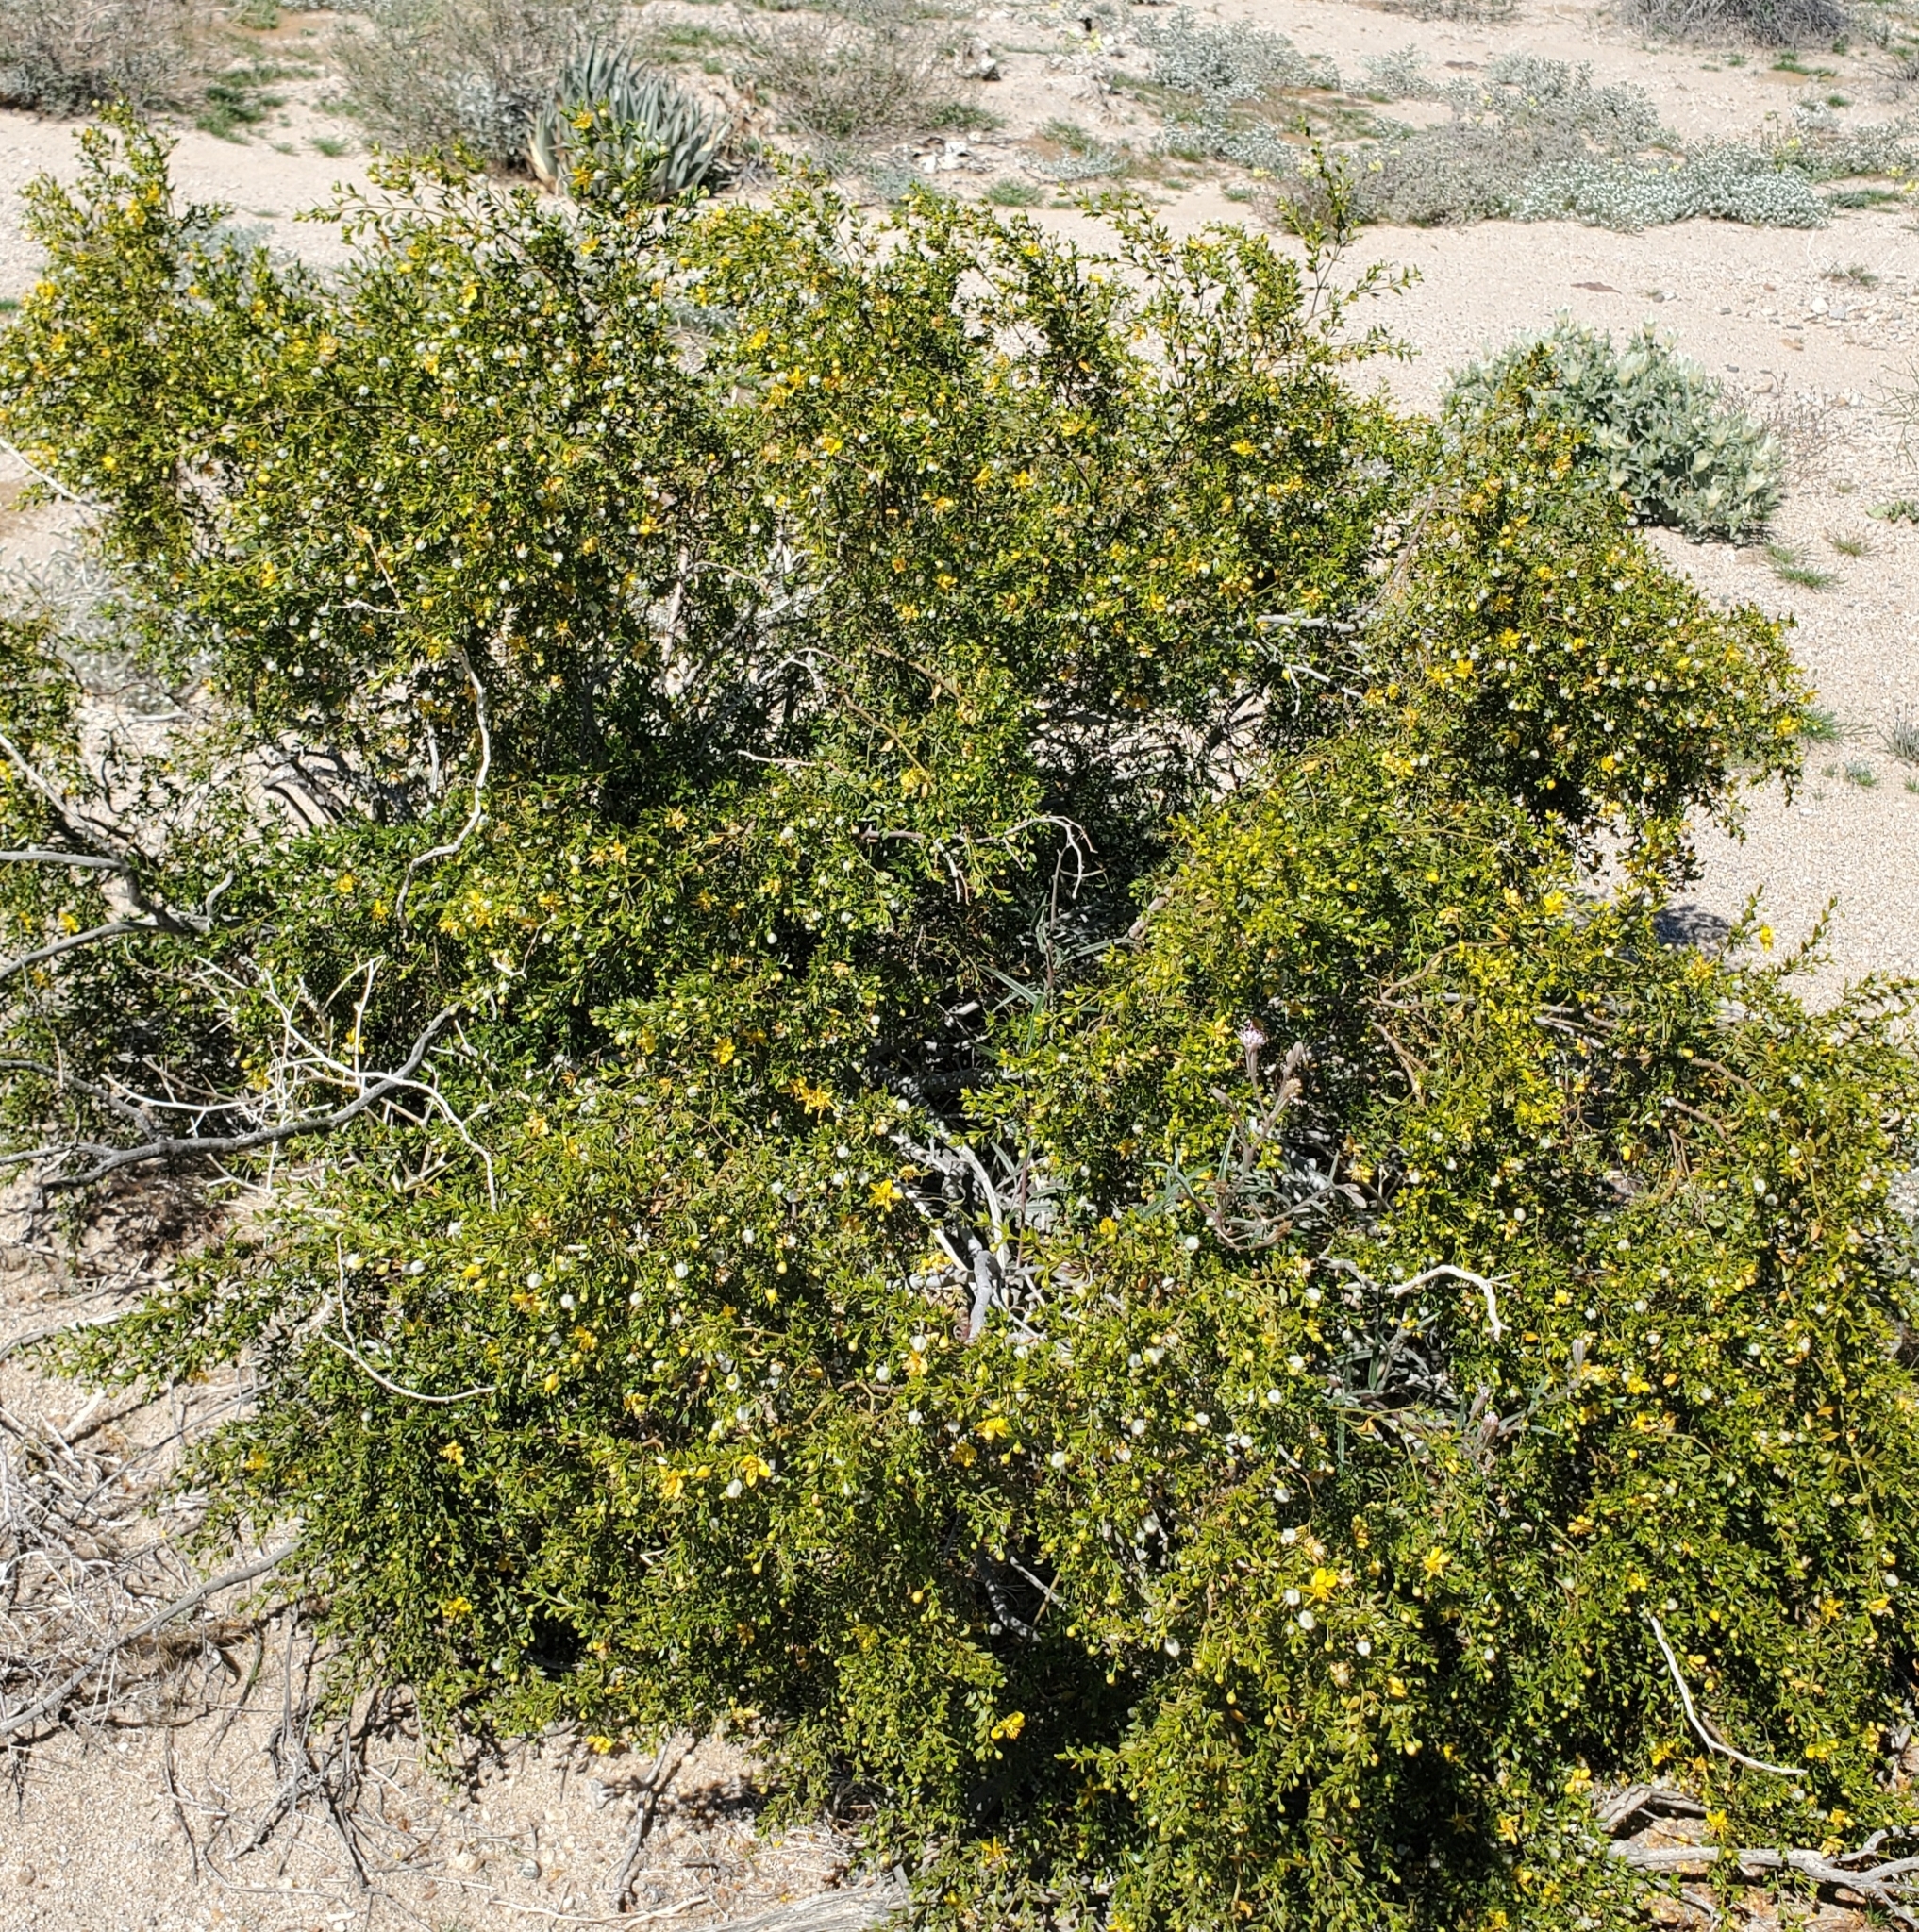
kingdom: Plantae
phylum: Tracheophyta
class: Magnoliopsida
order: Zygophyllales
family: Zygophyllaceae
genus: Larrea
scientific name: Larrea tridentata
